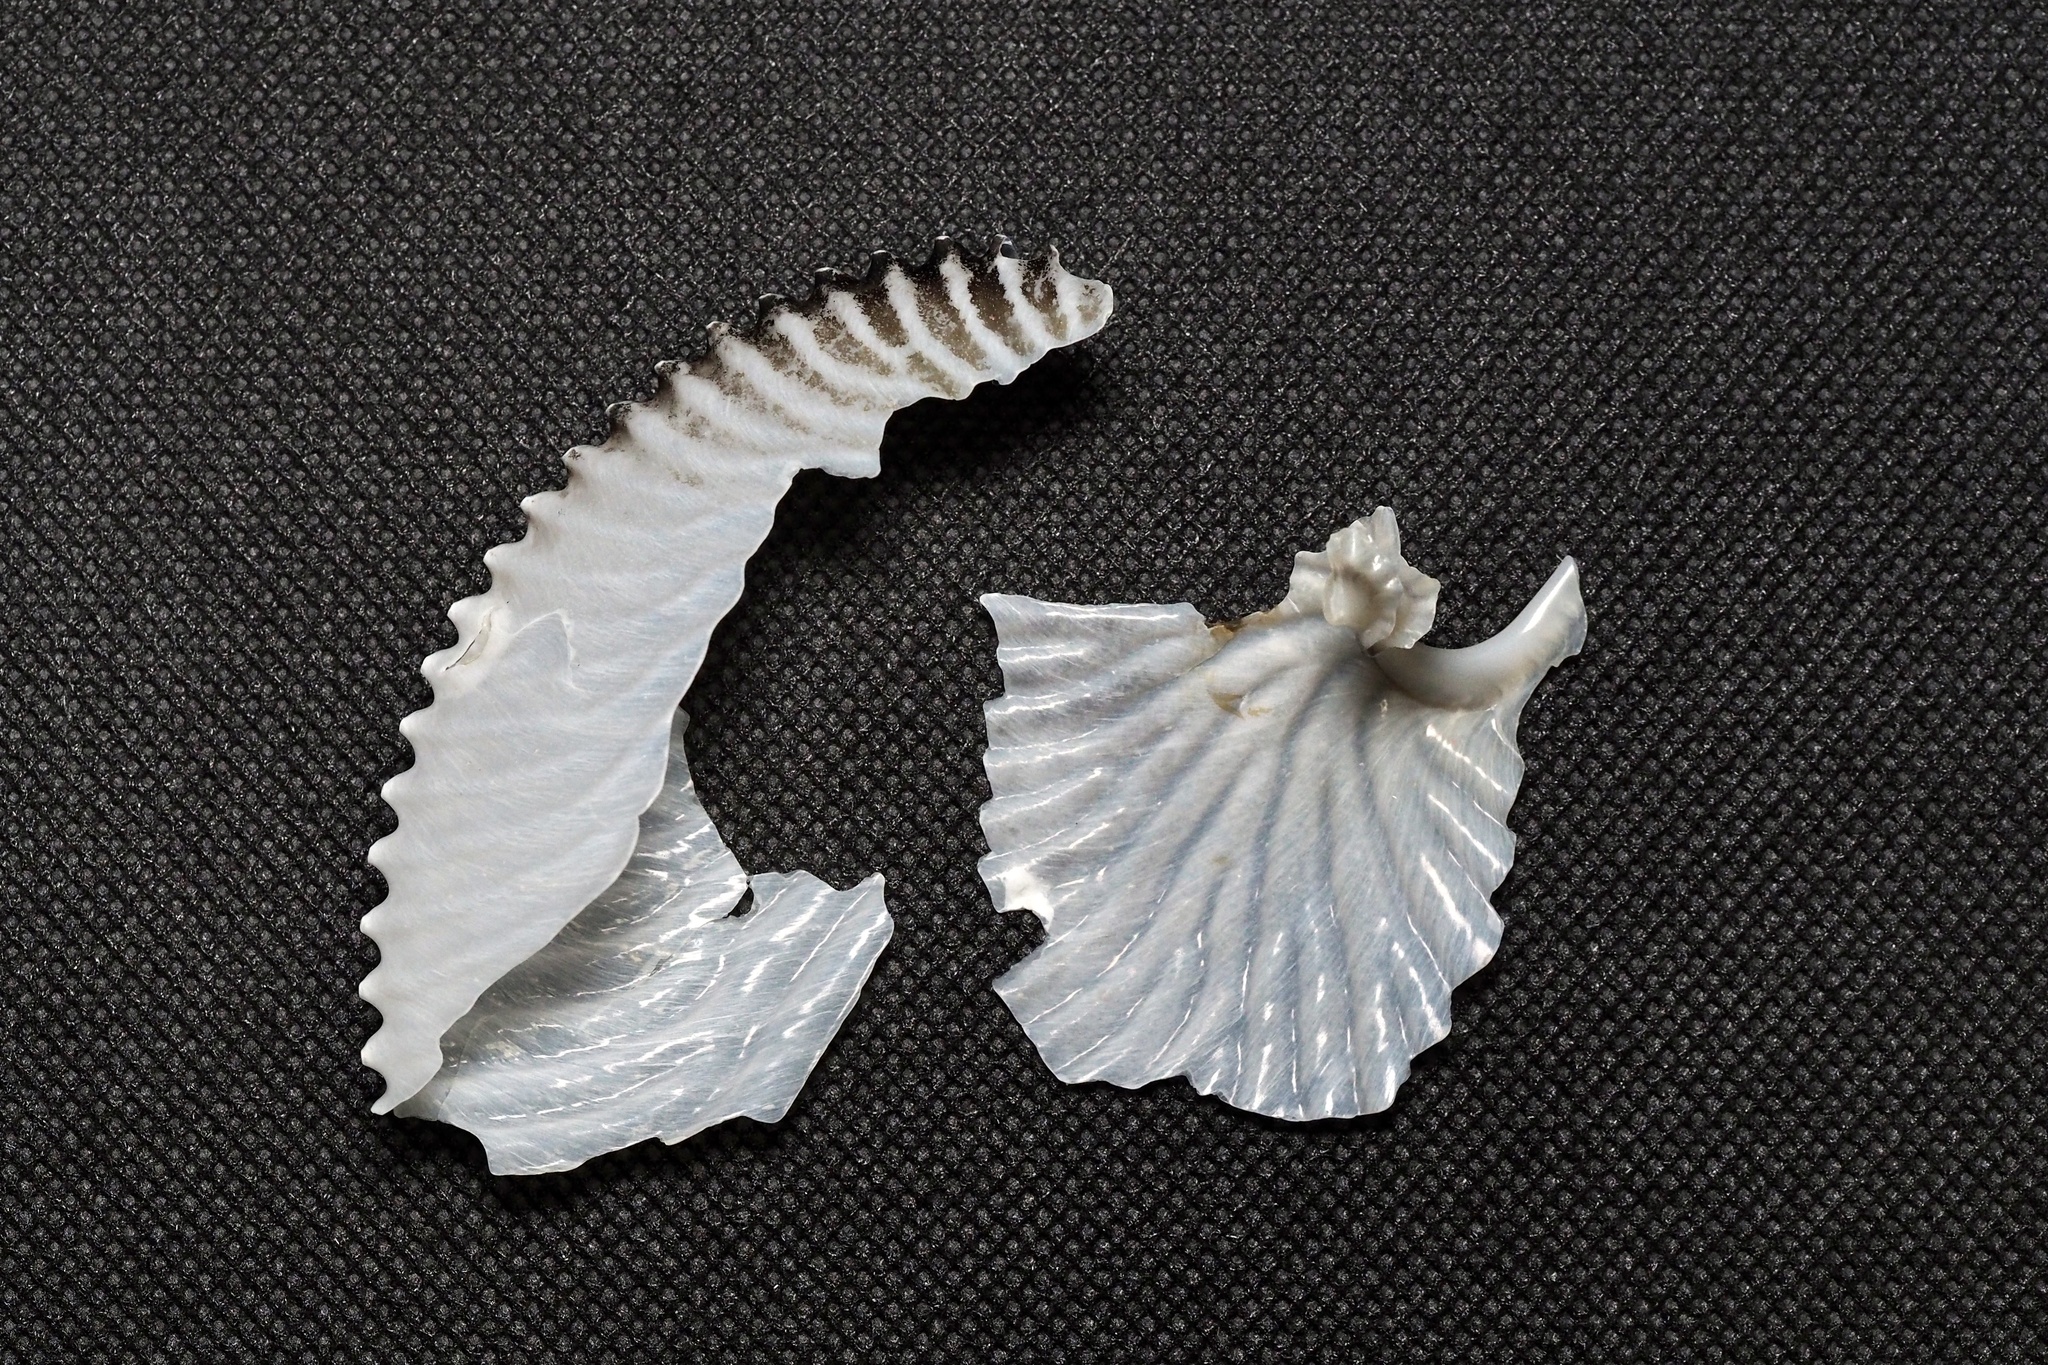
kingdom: Animalia
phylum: Mollusca
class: Cephalopoda
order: Octopoda
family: Argonautidae
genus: Argonauta
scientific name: Argonauta argo
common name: Common paper nautilus
